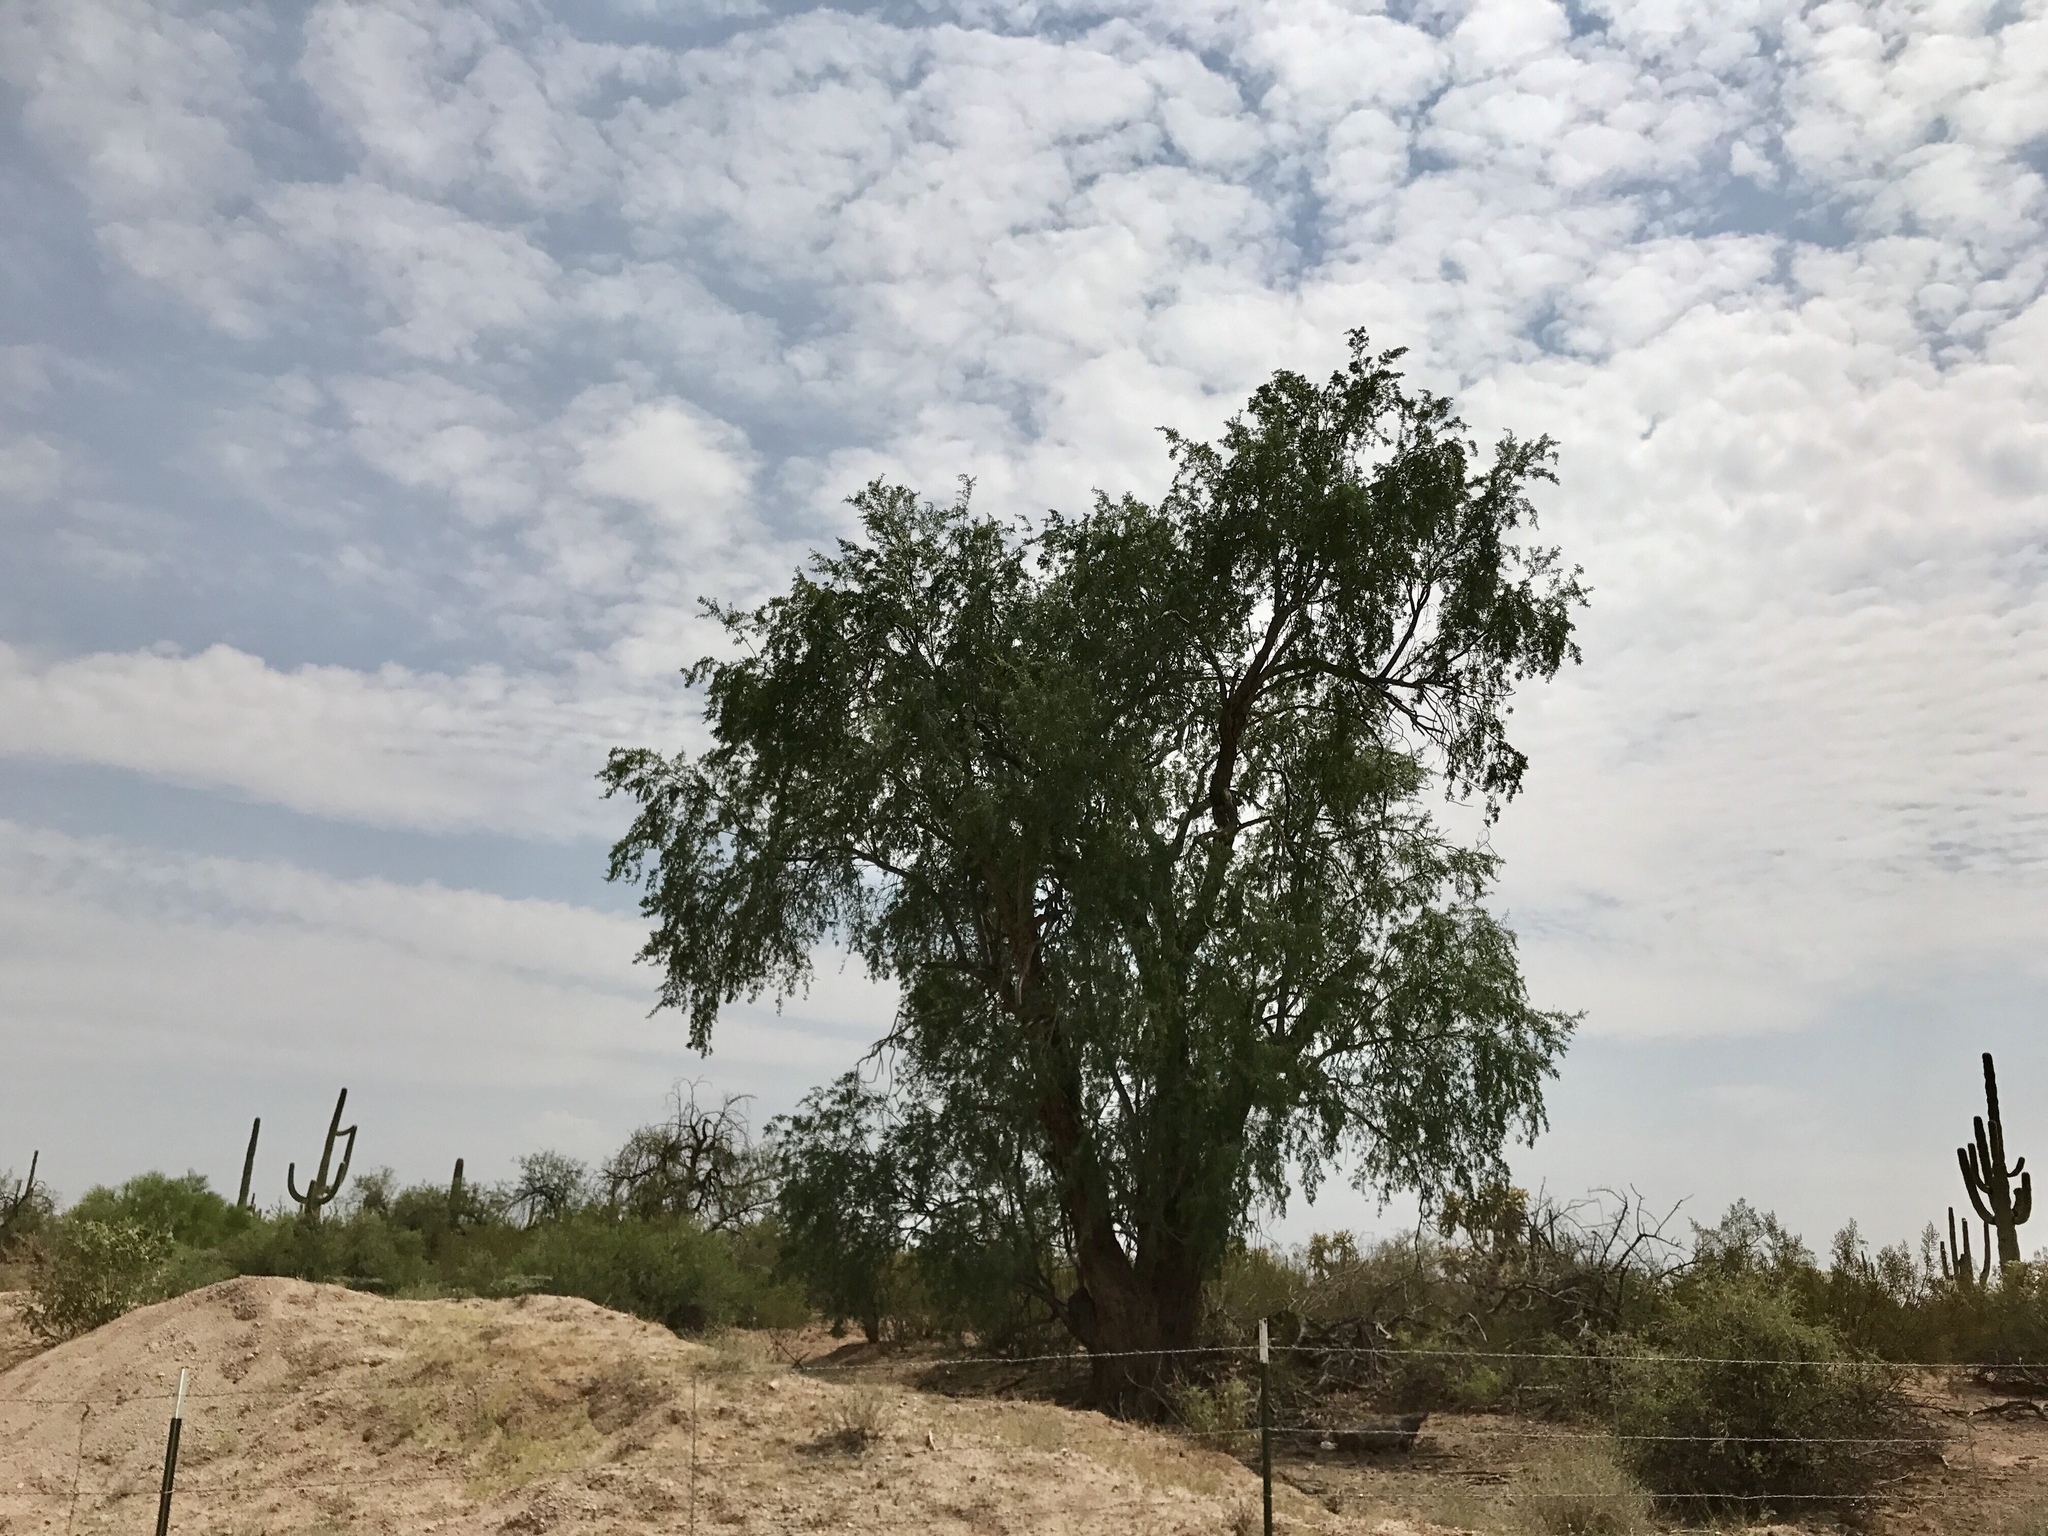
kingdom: Plantae
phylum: Tracheophyta
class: Magnoliopsida
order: Fabales
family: Fabaceae
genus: Olneya
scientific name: Olneya tesota
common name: Desert ironwood
